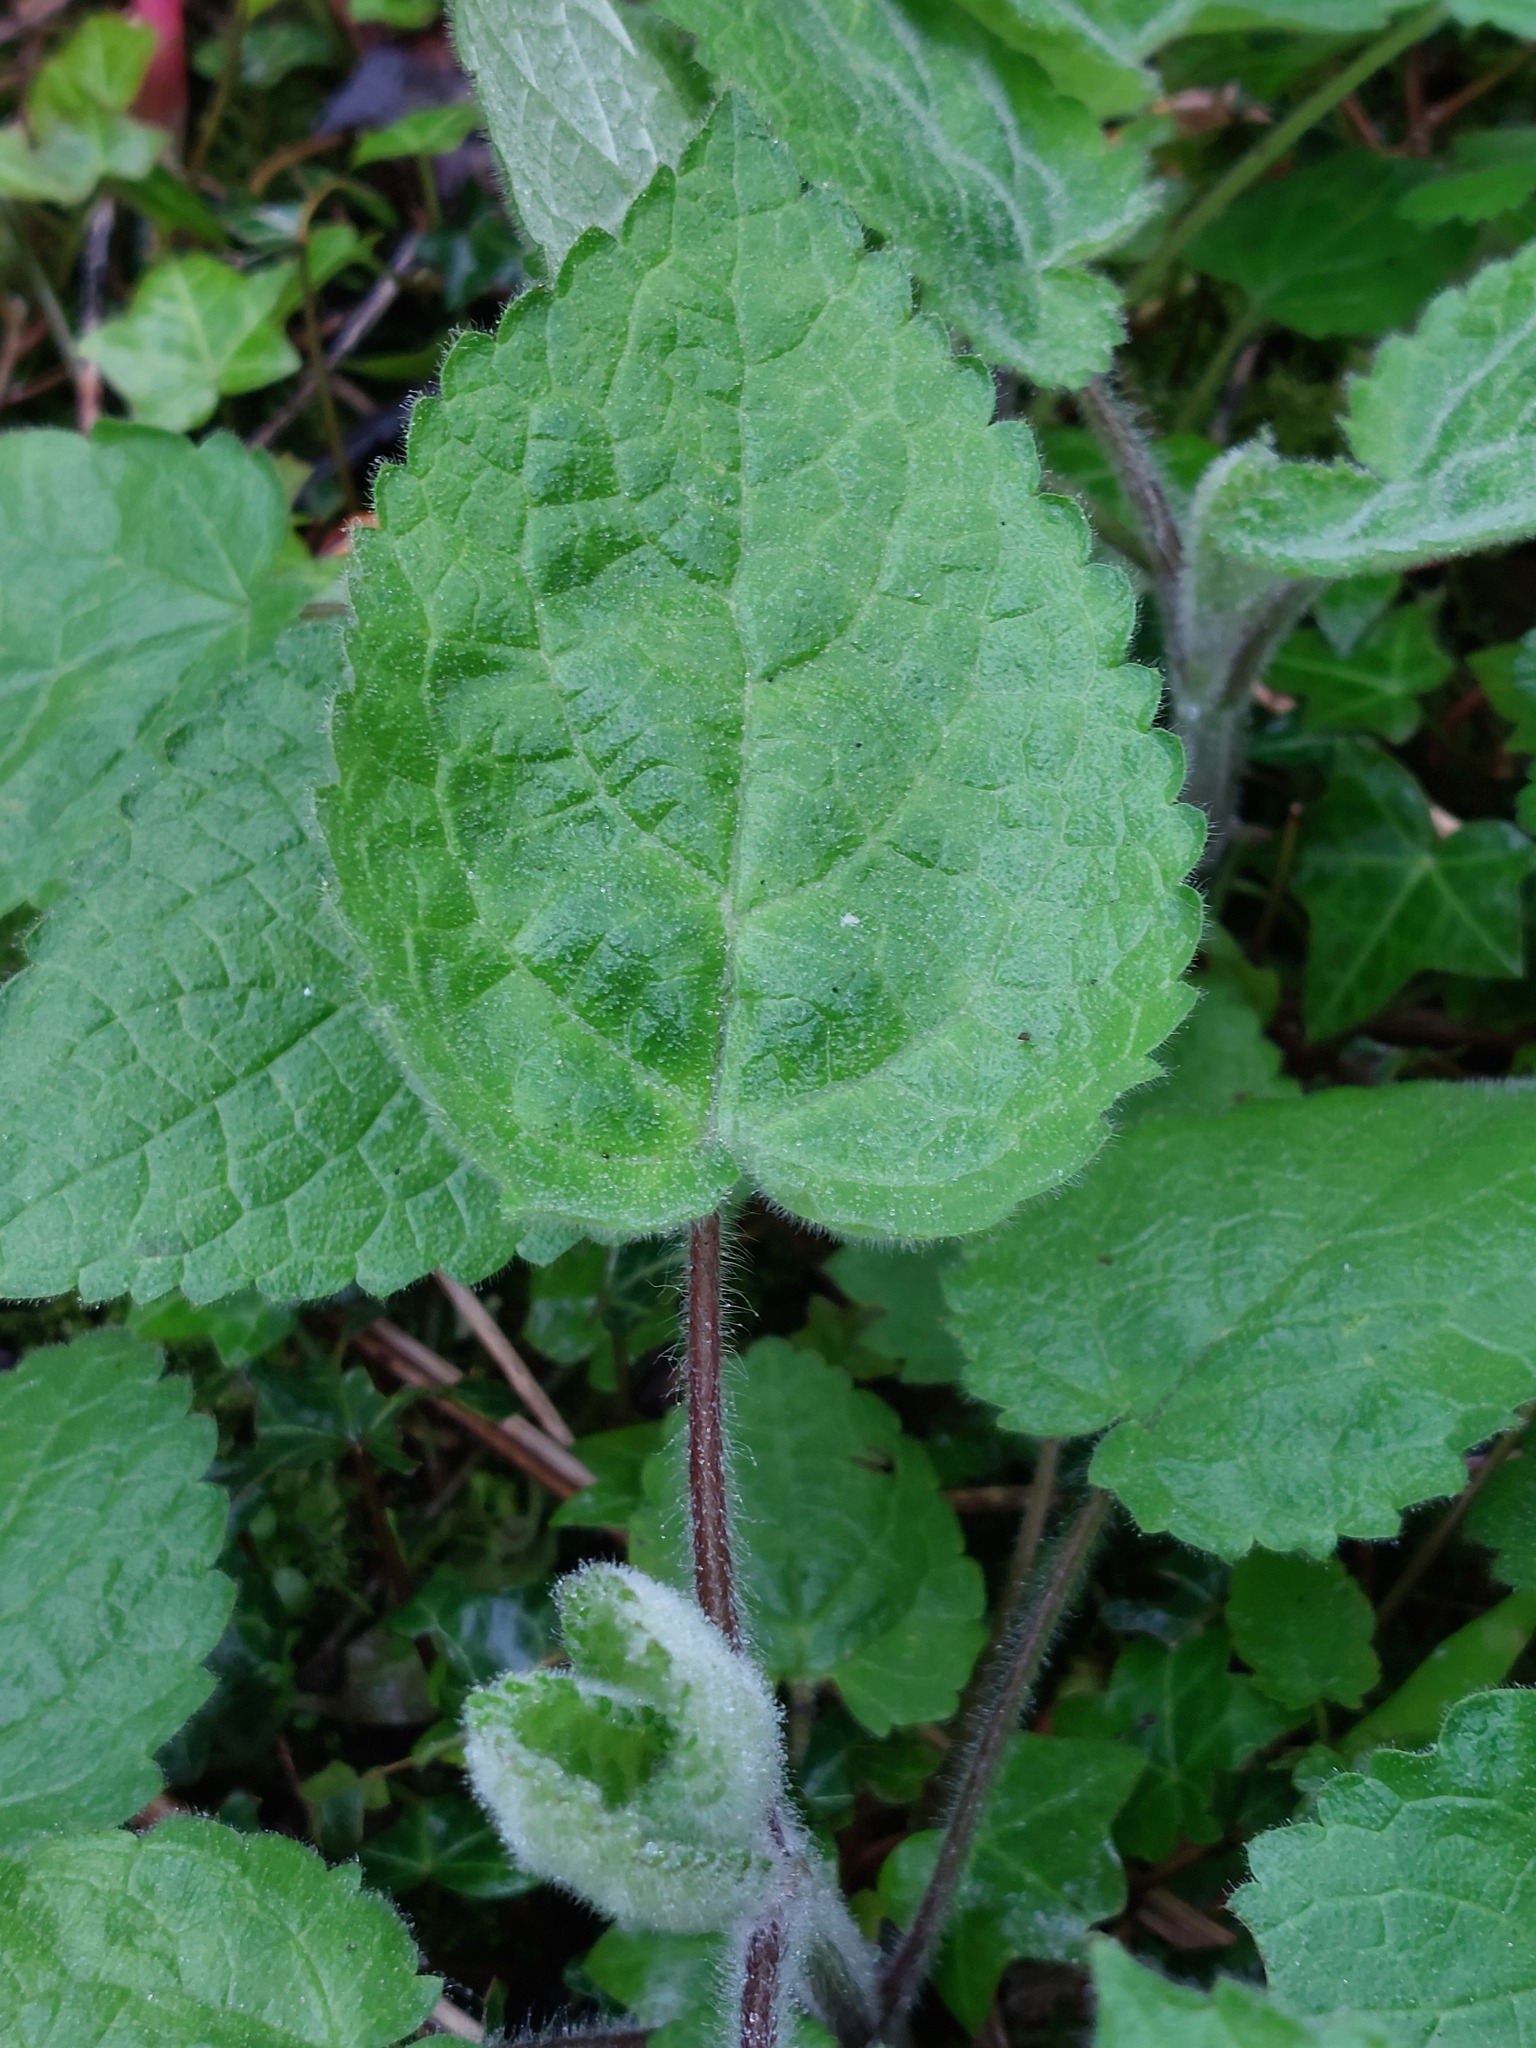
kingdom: Plantae
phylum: Tracheophyta
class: Magnoliopsida
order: Lamiales
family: Lamiaceae
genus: Stachys
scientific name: Stachys sylvatica
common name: Hedge woundwort
